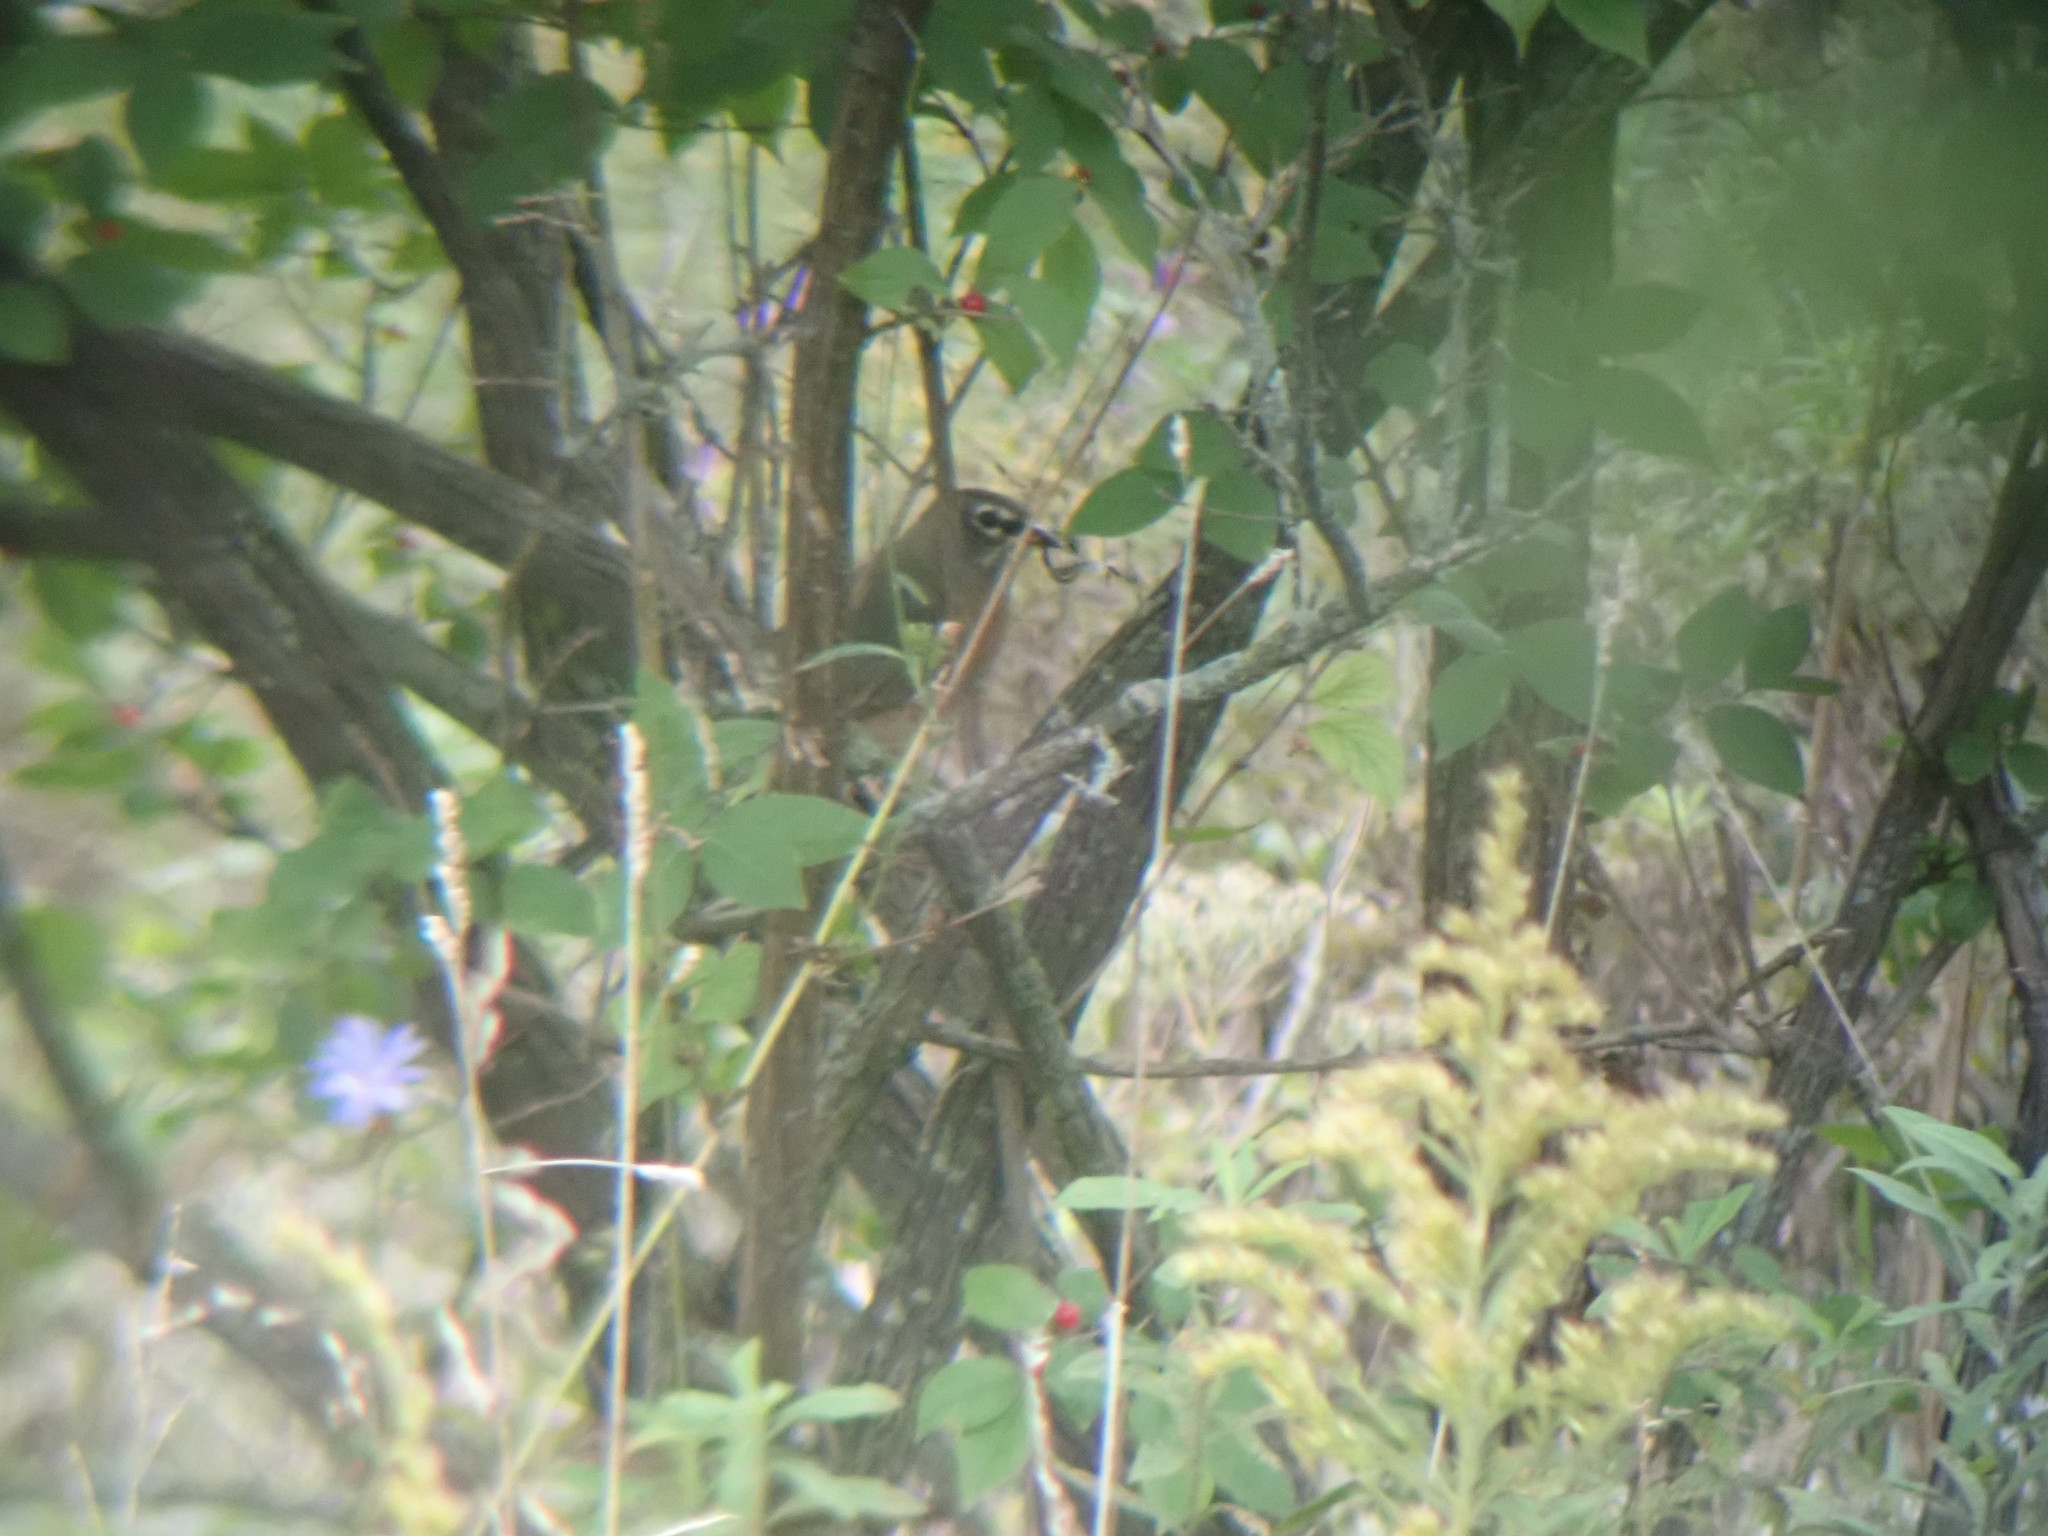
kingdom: Animalia
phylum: Chordata
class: Aves
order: Passeriformes
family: Turdidae
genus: Turdus
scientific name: Turdus migratorius
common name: American robin
